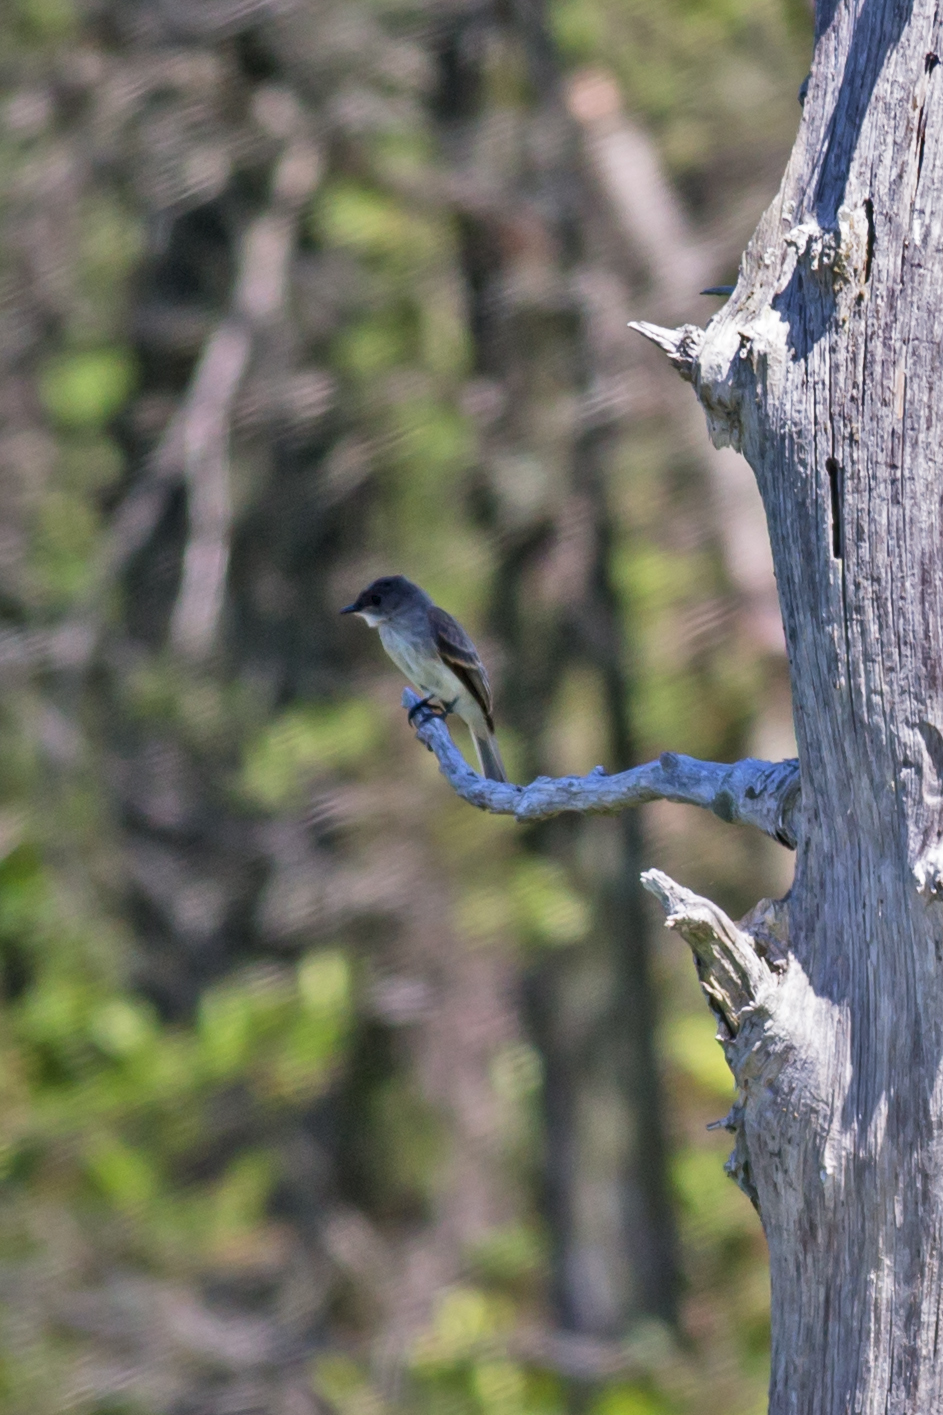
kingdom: Animalia
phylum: Chordata
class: Aves
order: Passeriformes
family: Tyrannidae
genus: Sayornis
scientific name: Sayornis phoebe
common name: Eastern phoebe
